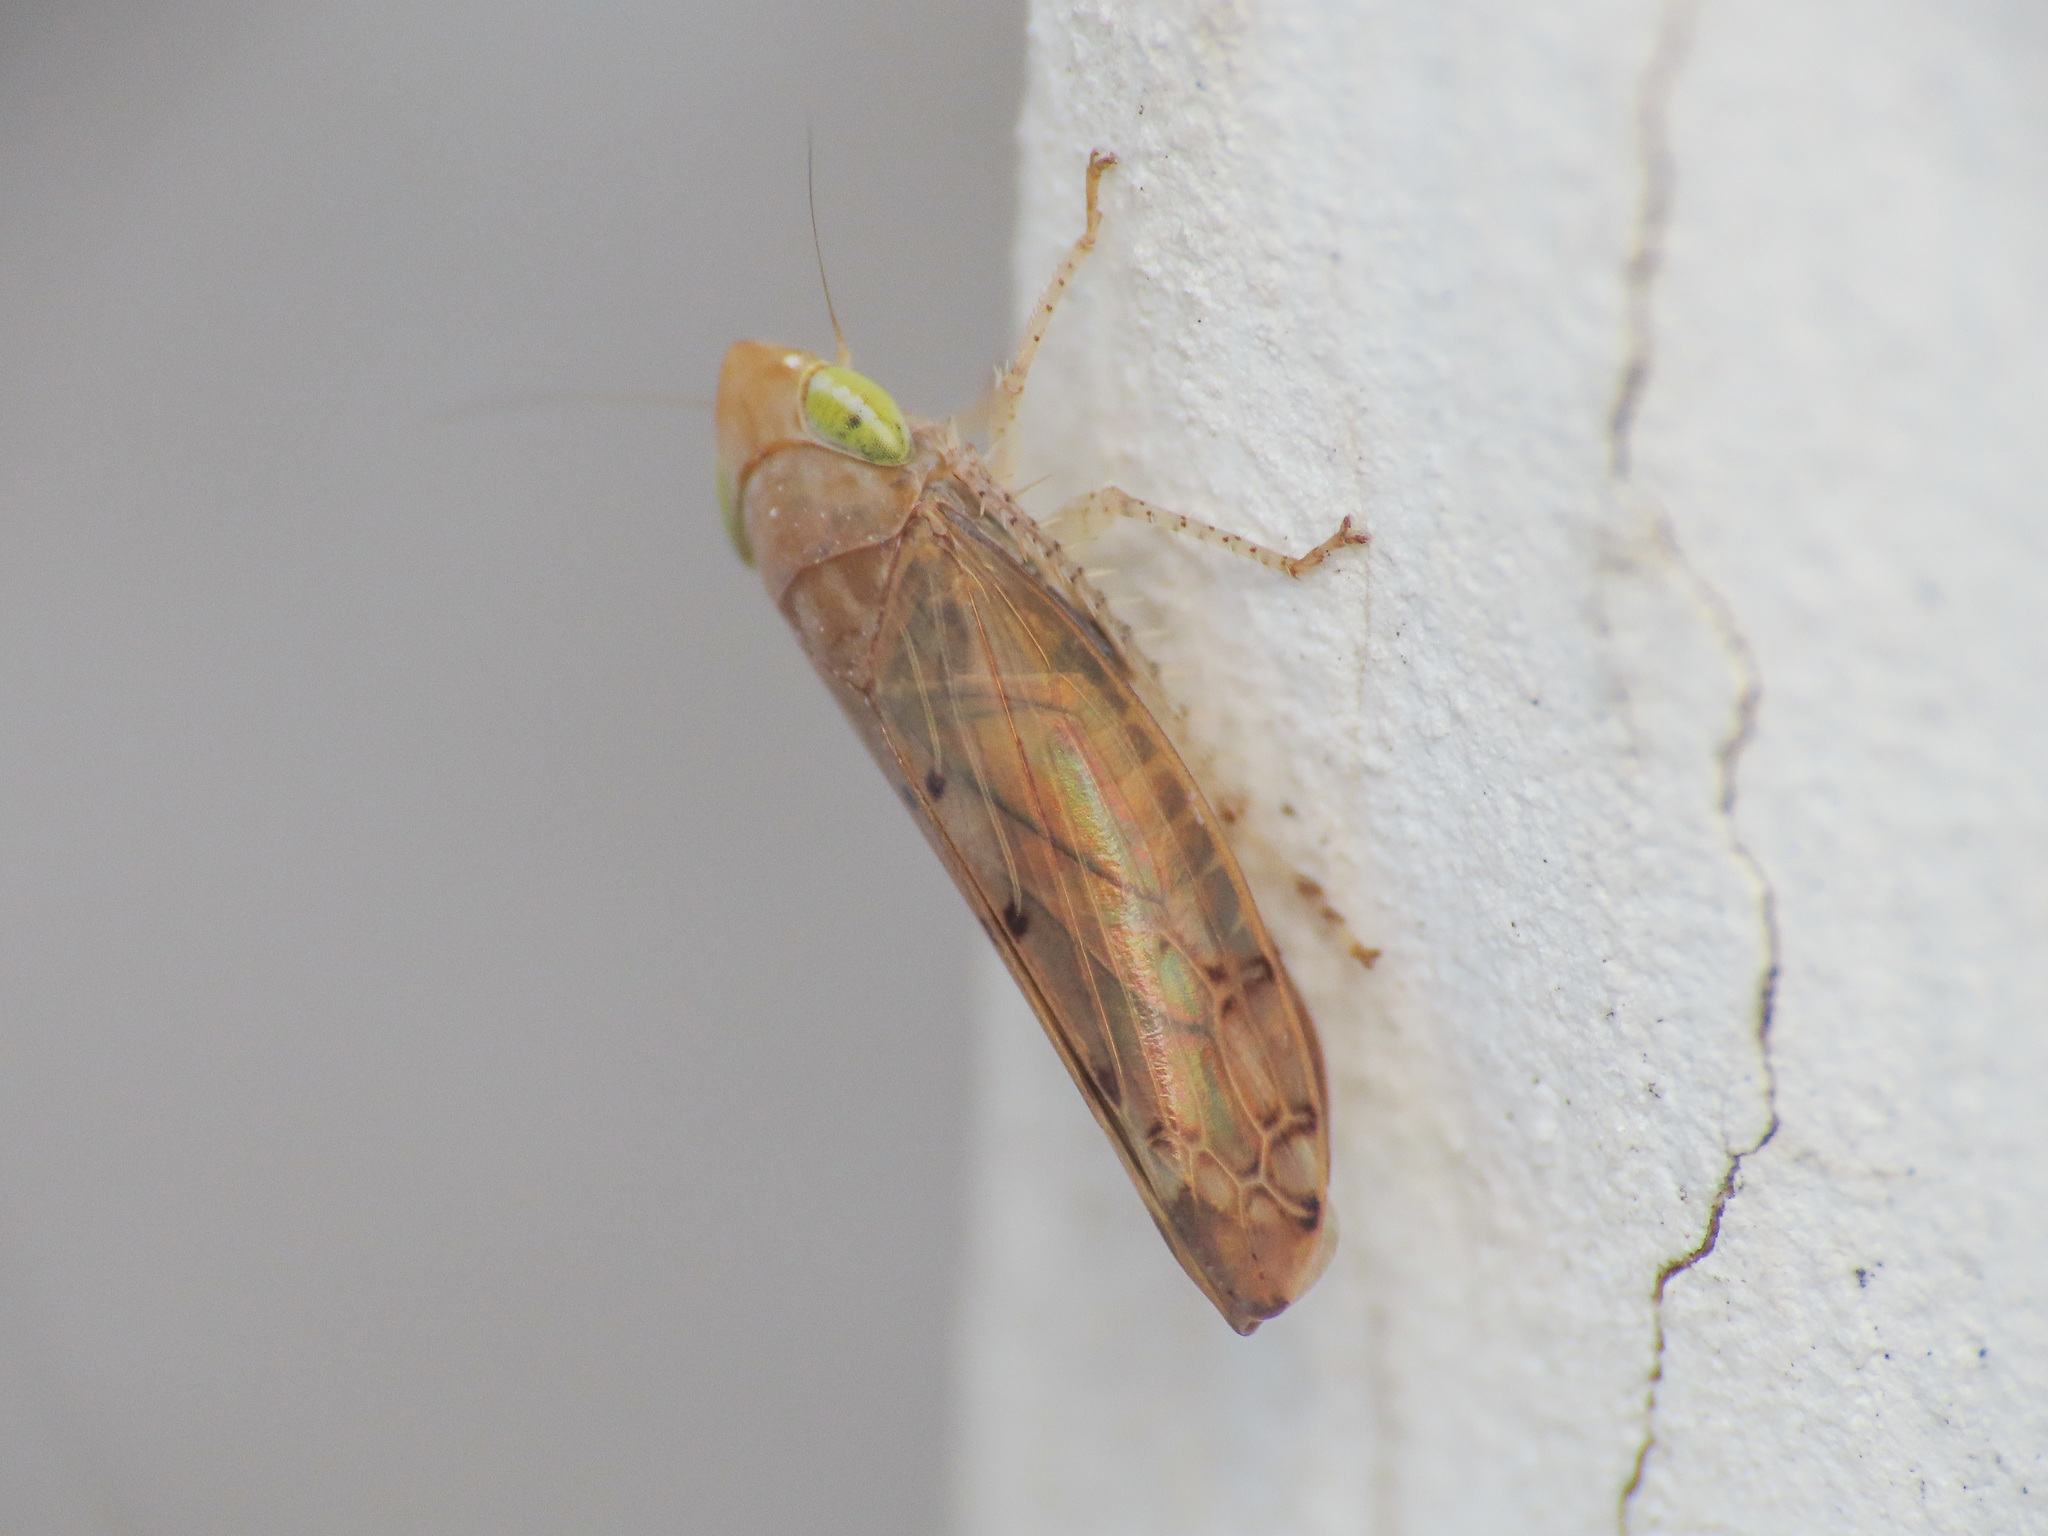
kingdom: Animalia
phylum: Arthropoda
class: Insecta
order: Hemiptera
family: Cicadellidae
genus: Synophropsis
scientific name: Synophropsis lauri
